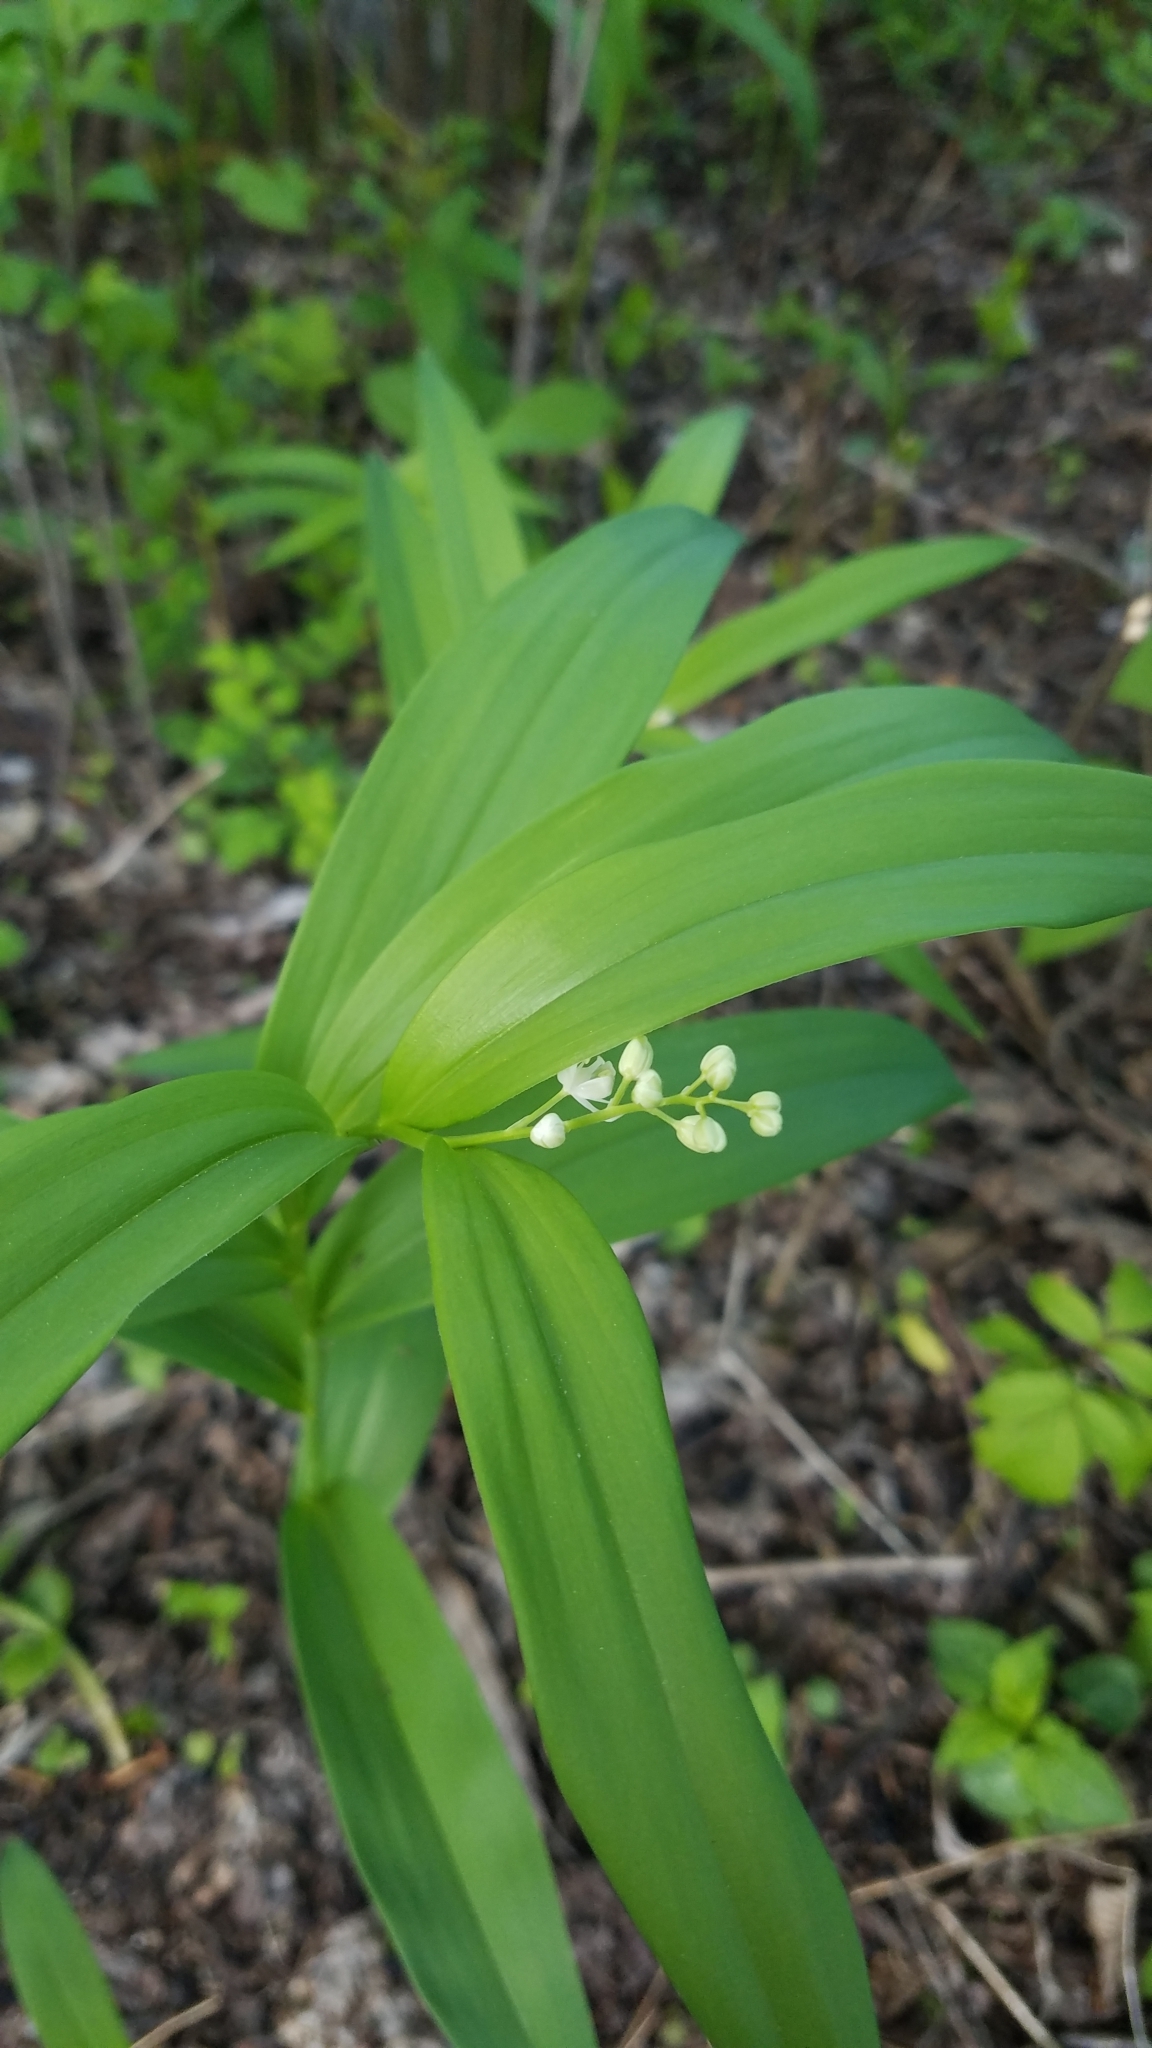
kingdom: Plantae
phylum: Tracheophyta
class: Liliopsida
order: Asparagales
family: Asparagaceae
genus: Maianthemum
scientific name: Maianthemum stellatum
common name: Little false solomon's seal
